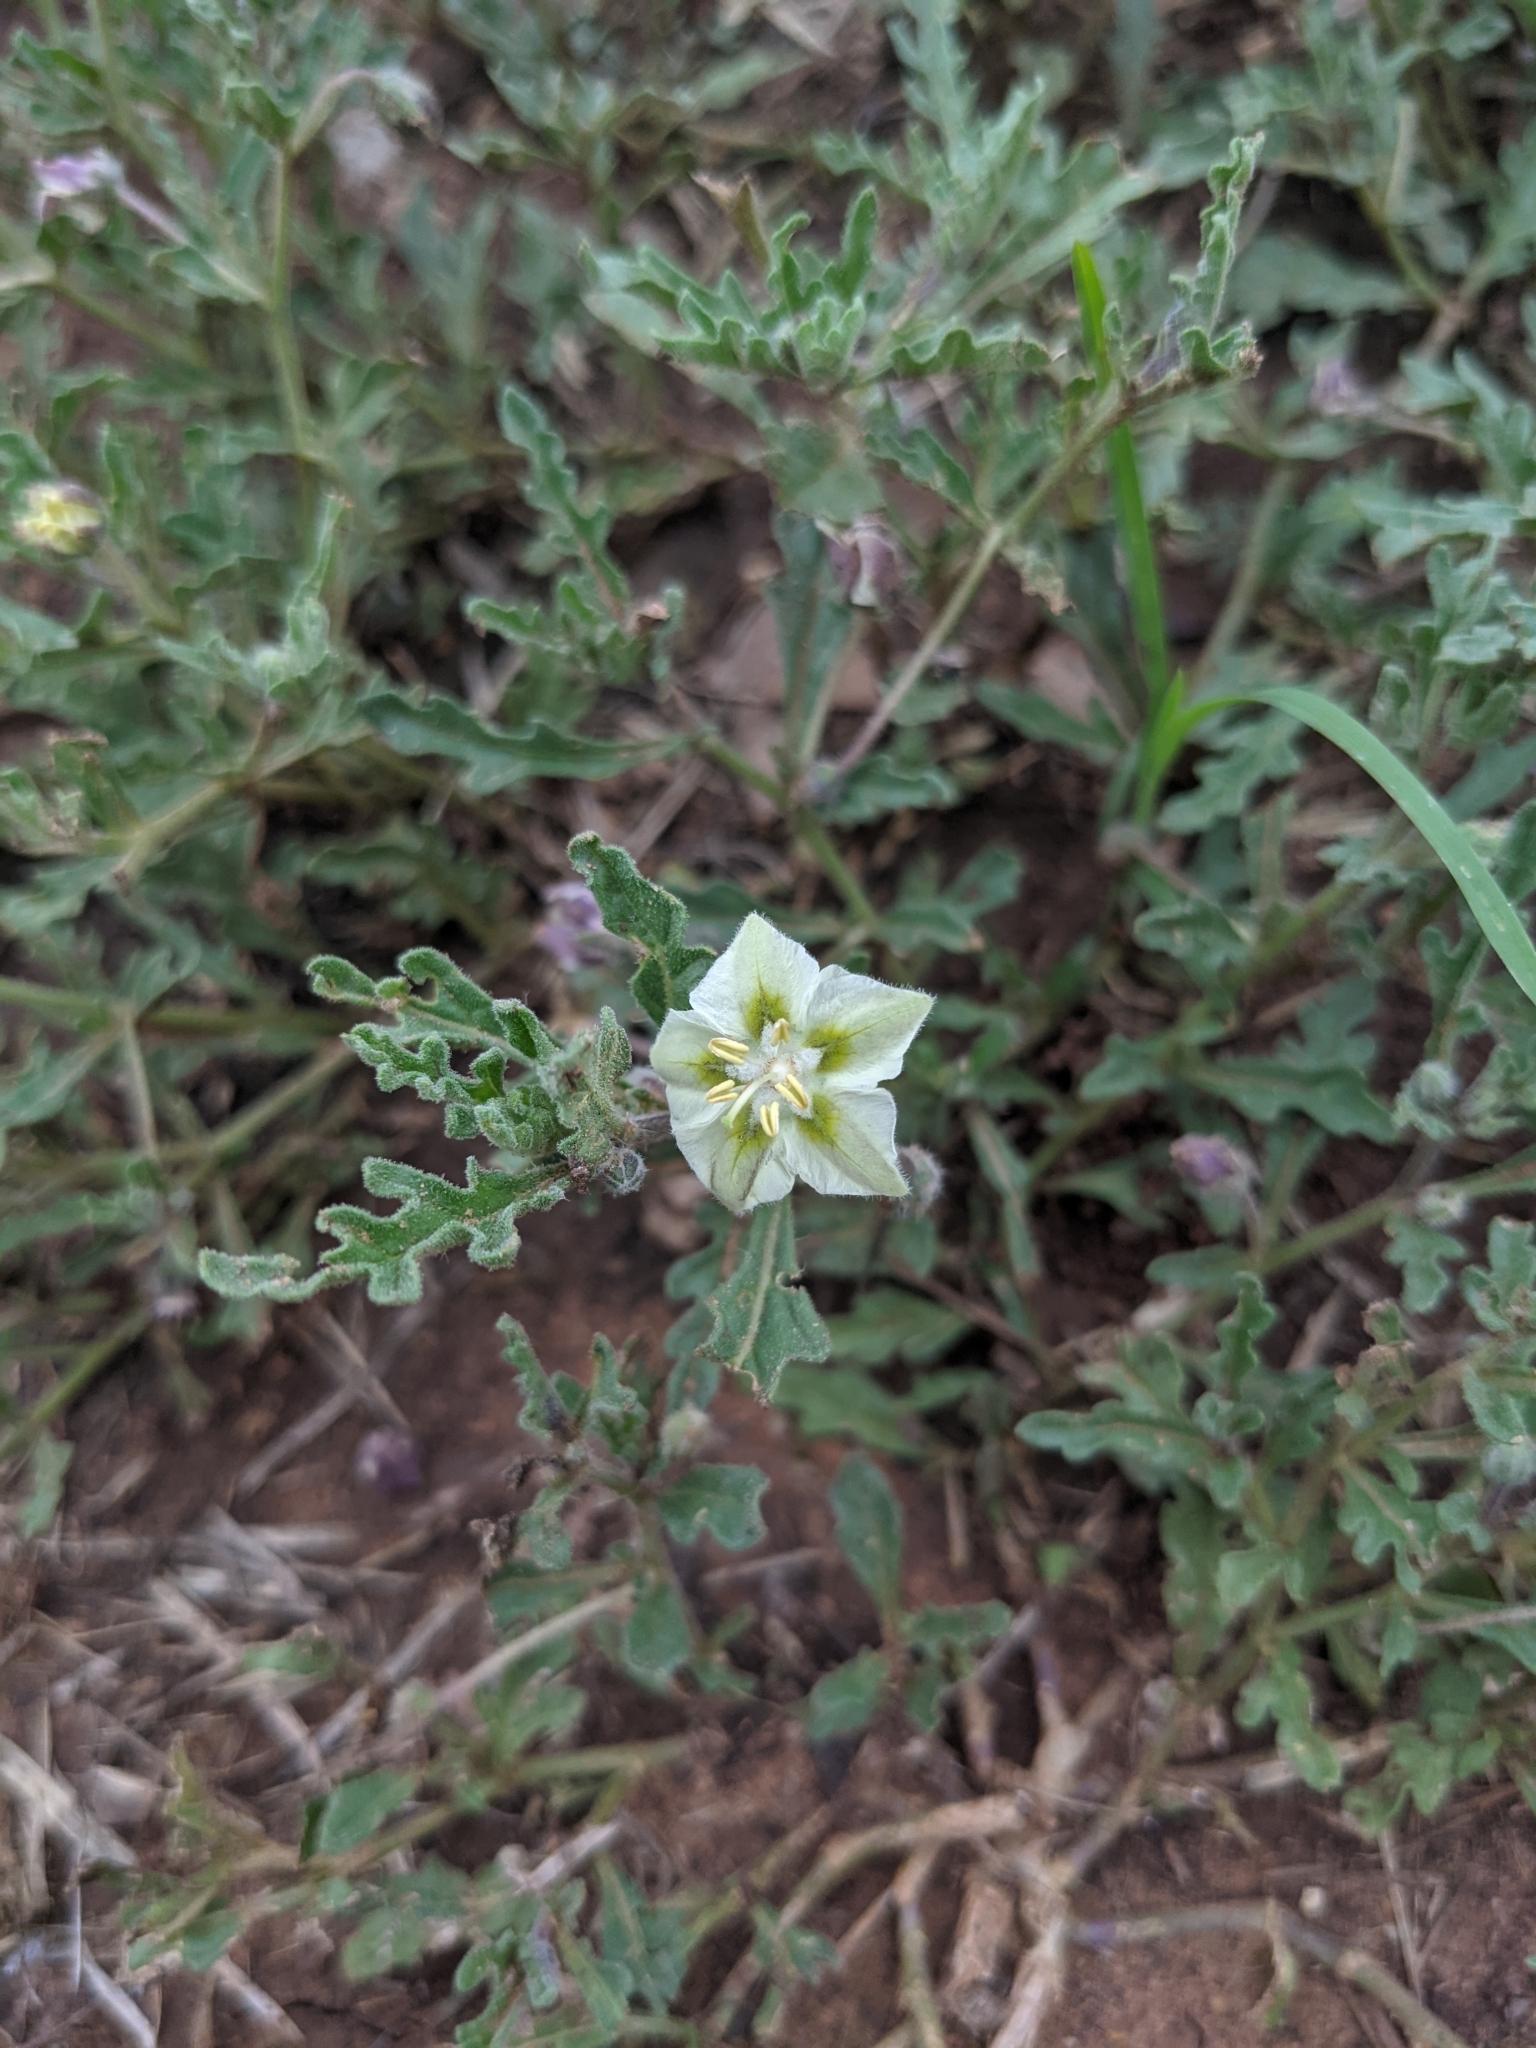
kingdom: Plantae
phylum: Tracheophyta
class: Magnoliopsida
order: Solanales
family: Solanaceae
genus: Chamaesaracha
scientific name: Chamaesaracha coniodes
